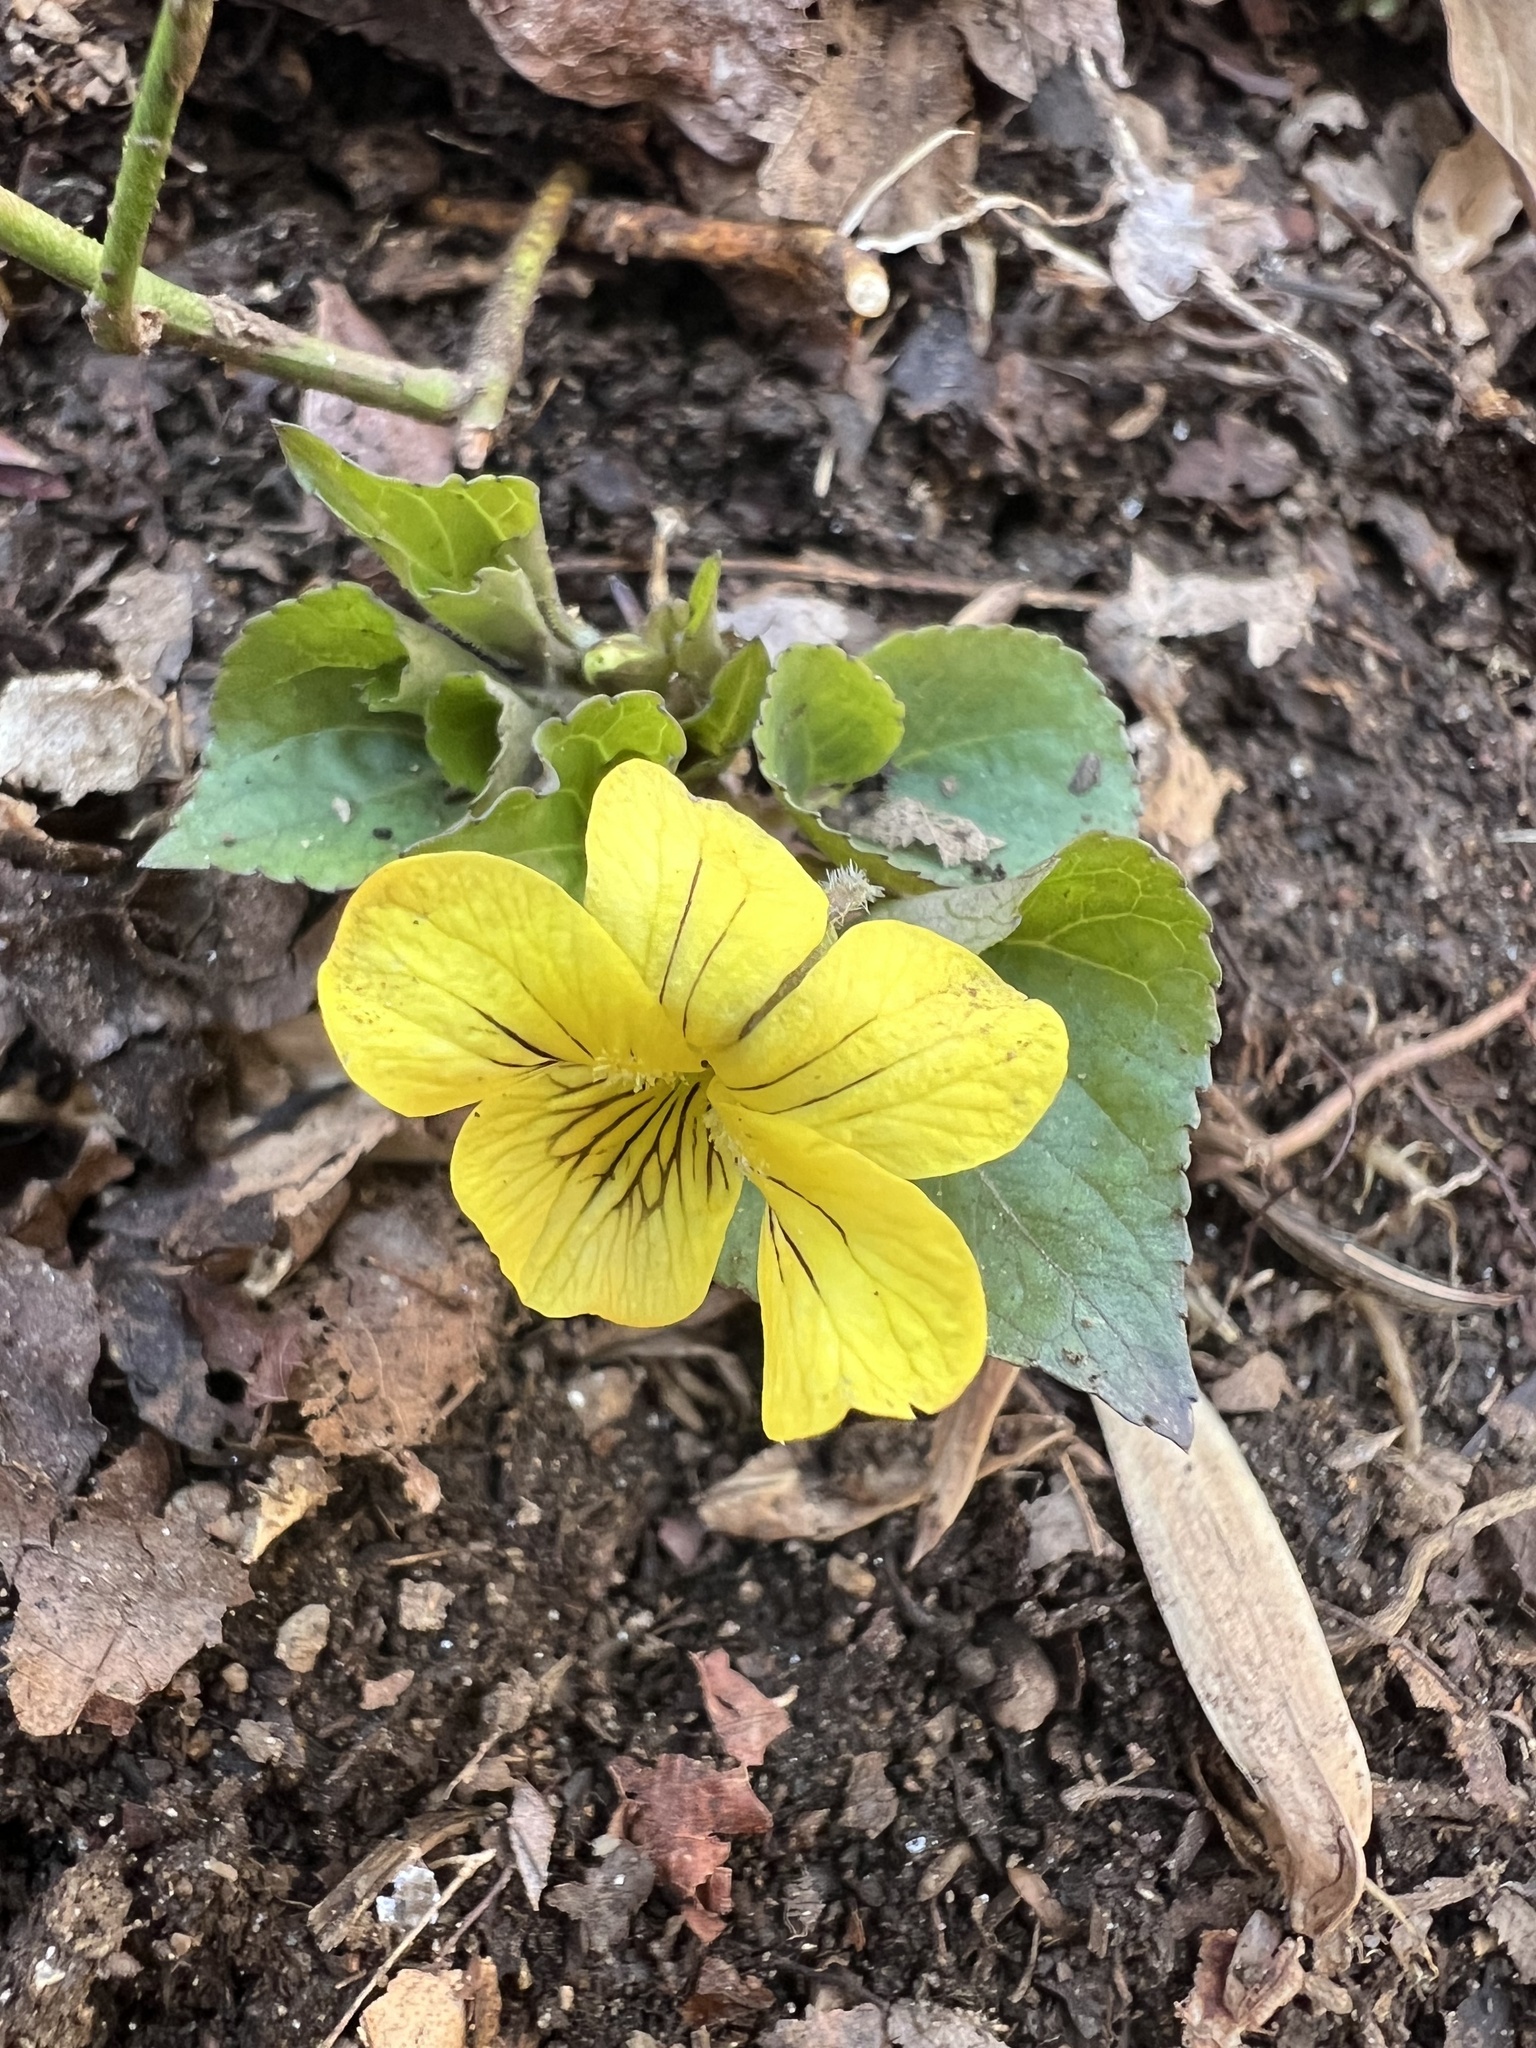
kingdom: Plantae
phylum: Tracheophyta
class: Magnoliopsida
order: Malpighiales
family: Violaceae
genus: Viola
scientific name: Viola eriocarpa
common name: Smooth yellow violet
